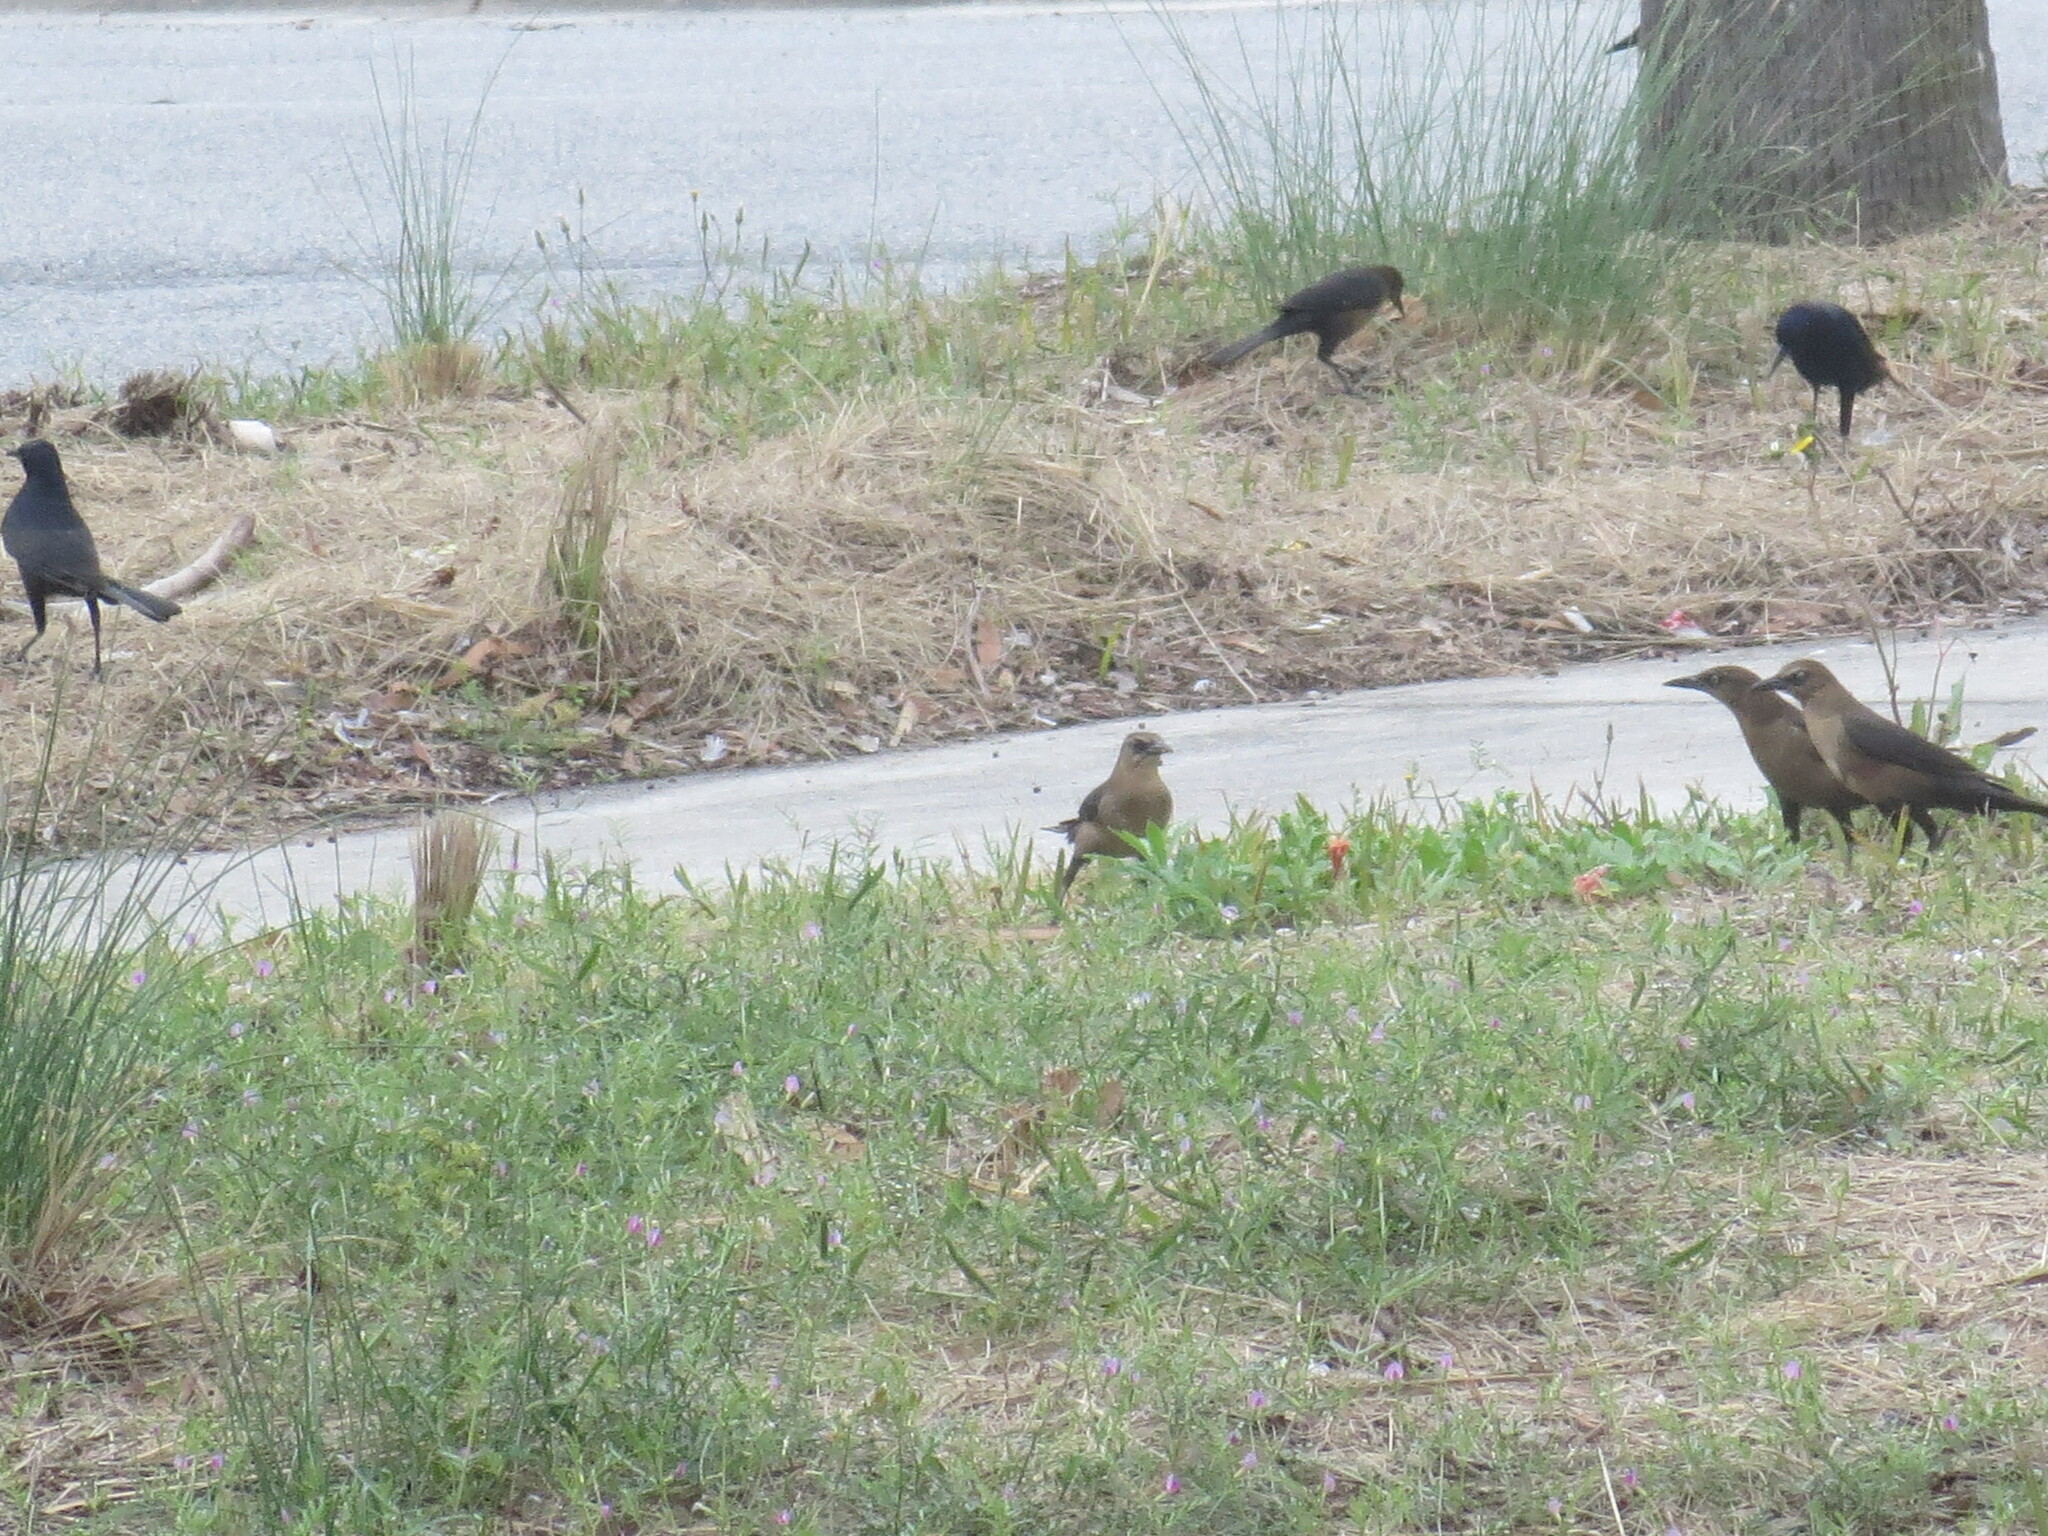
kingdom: Animalia
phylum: Chordata
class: Aves
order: Passeriformes
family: Icteridae
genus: Quiscalus
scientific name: Quiscalus major
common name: Boat-tailed grackle
